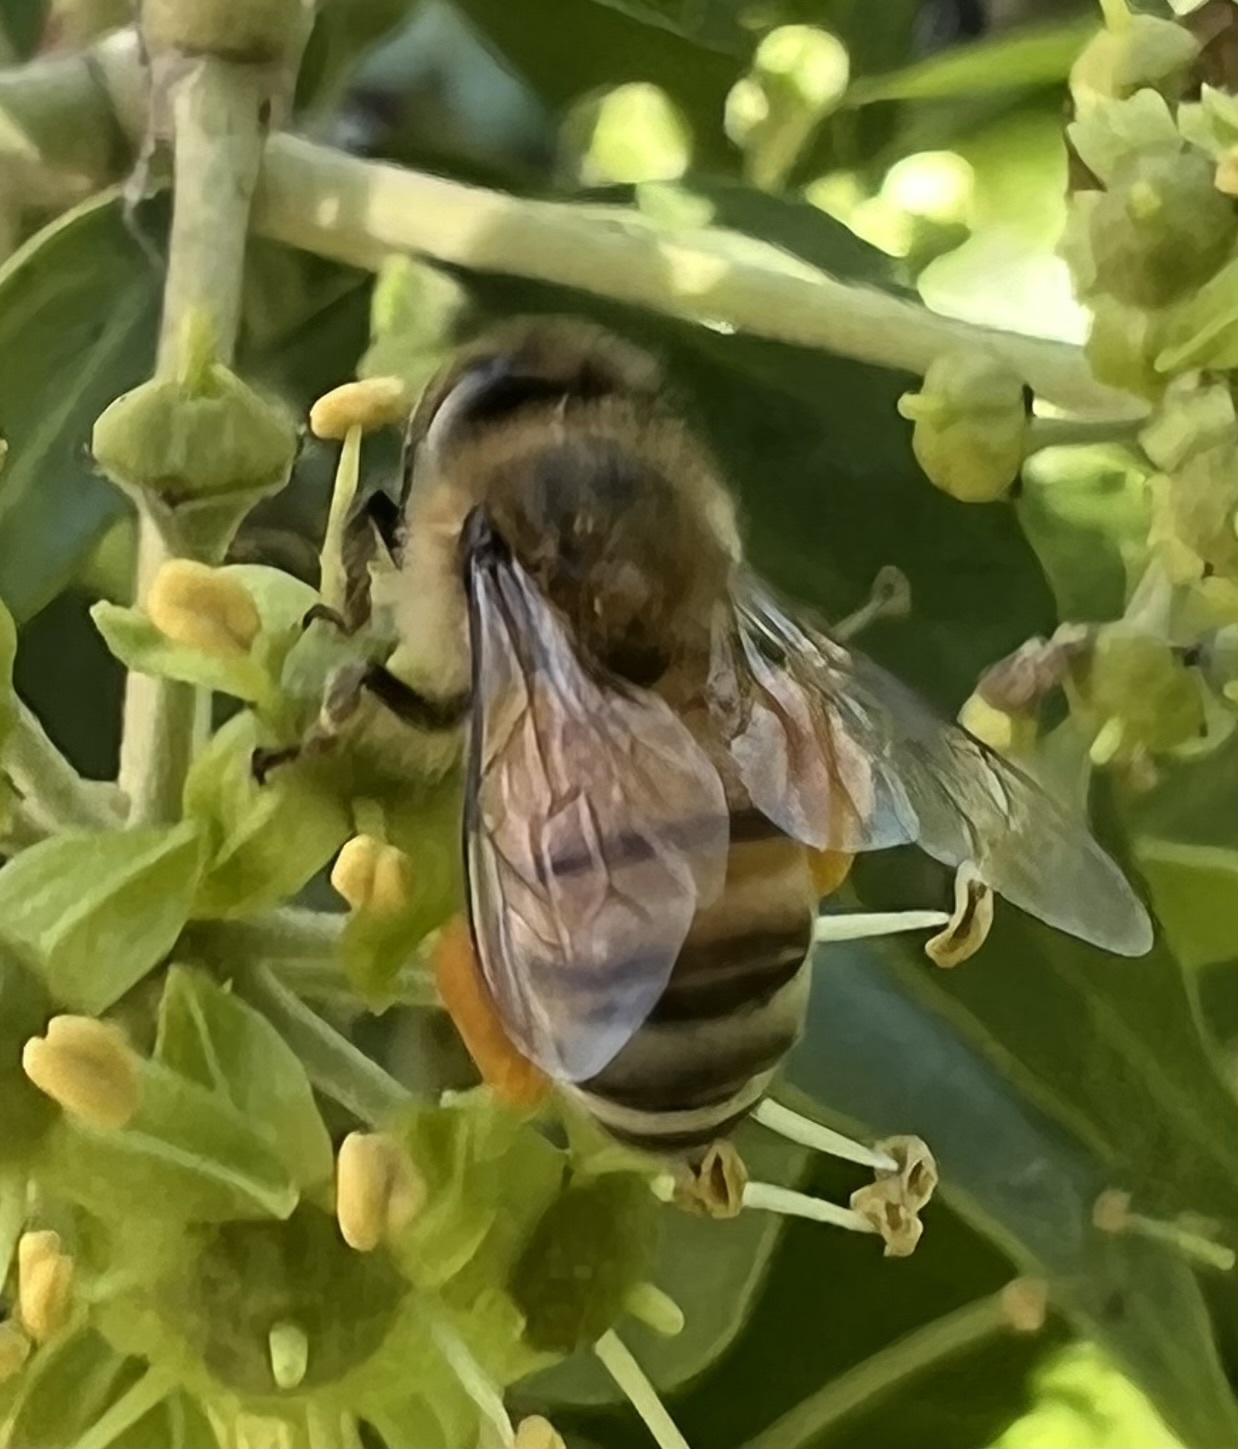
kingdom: Animalia
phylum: Arthropoda
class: Insecta
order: Hymenoptera
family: Apidae
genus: Apis
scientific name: Apis mellifera
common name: Honey bee
